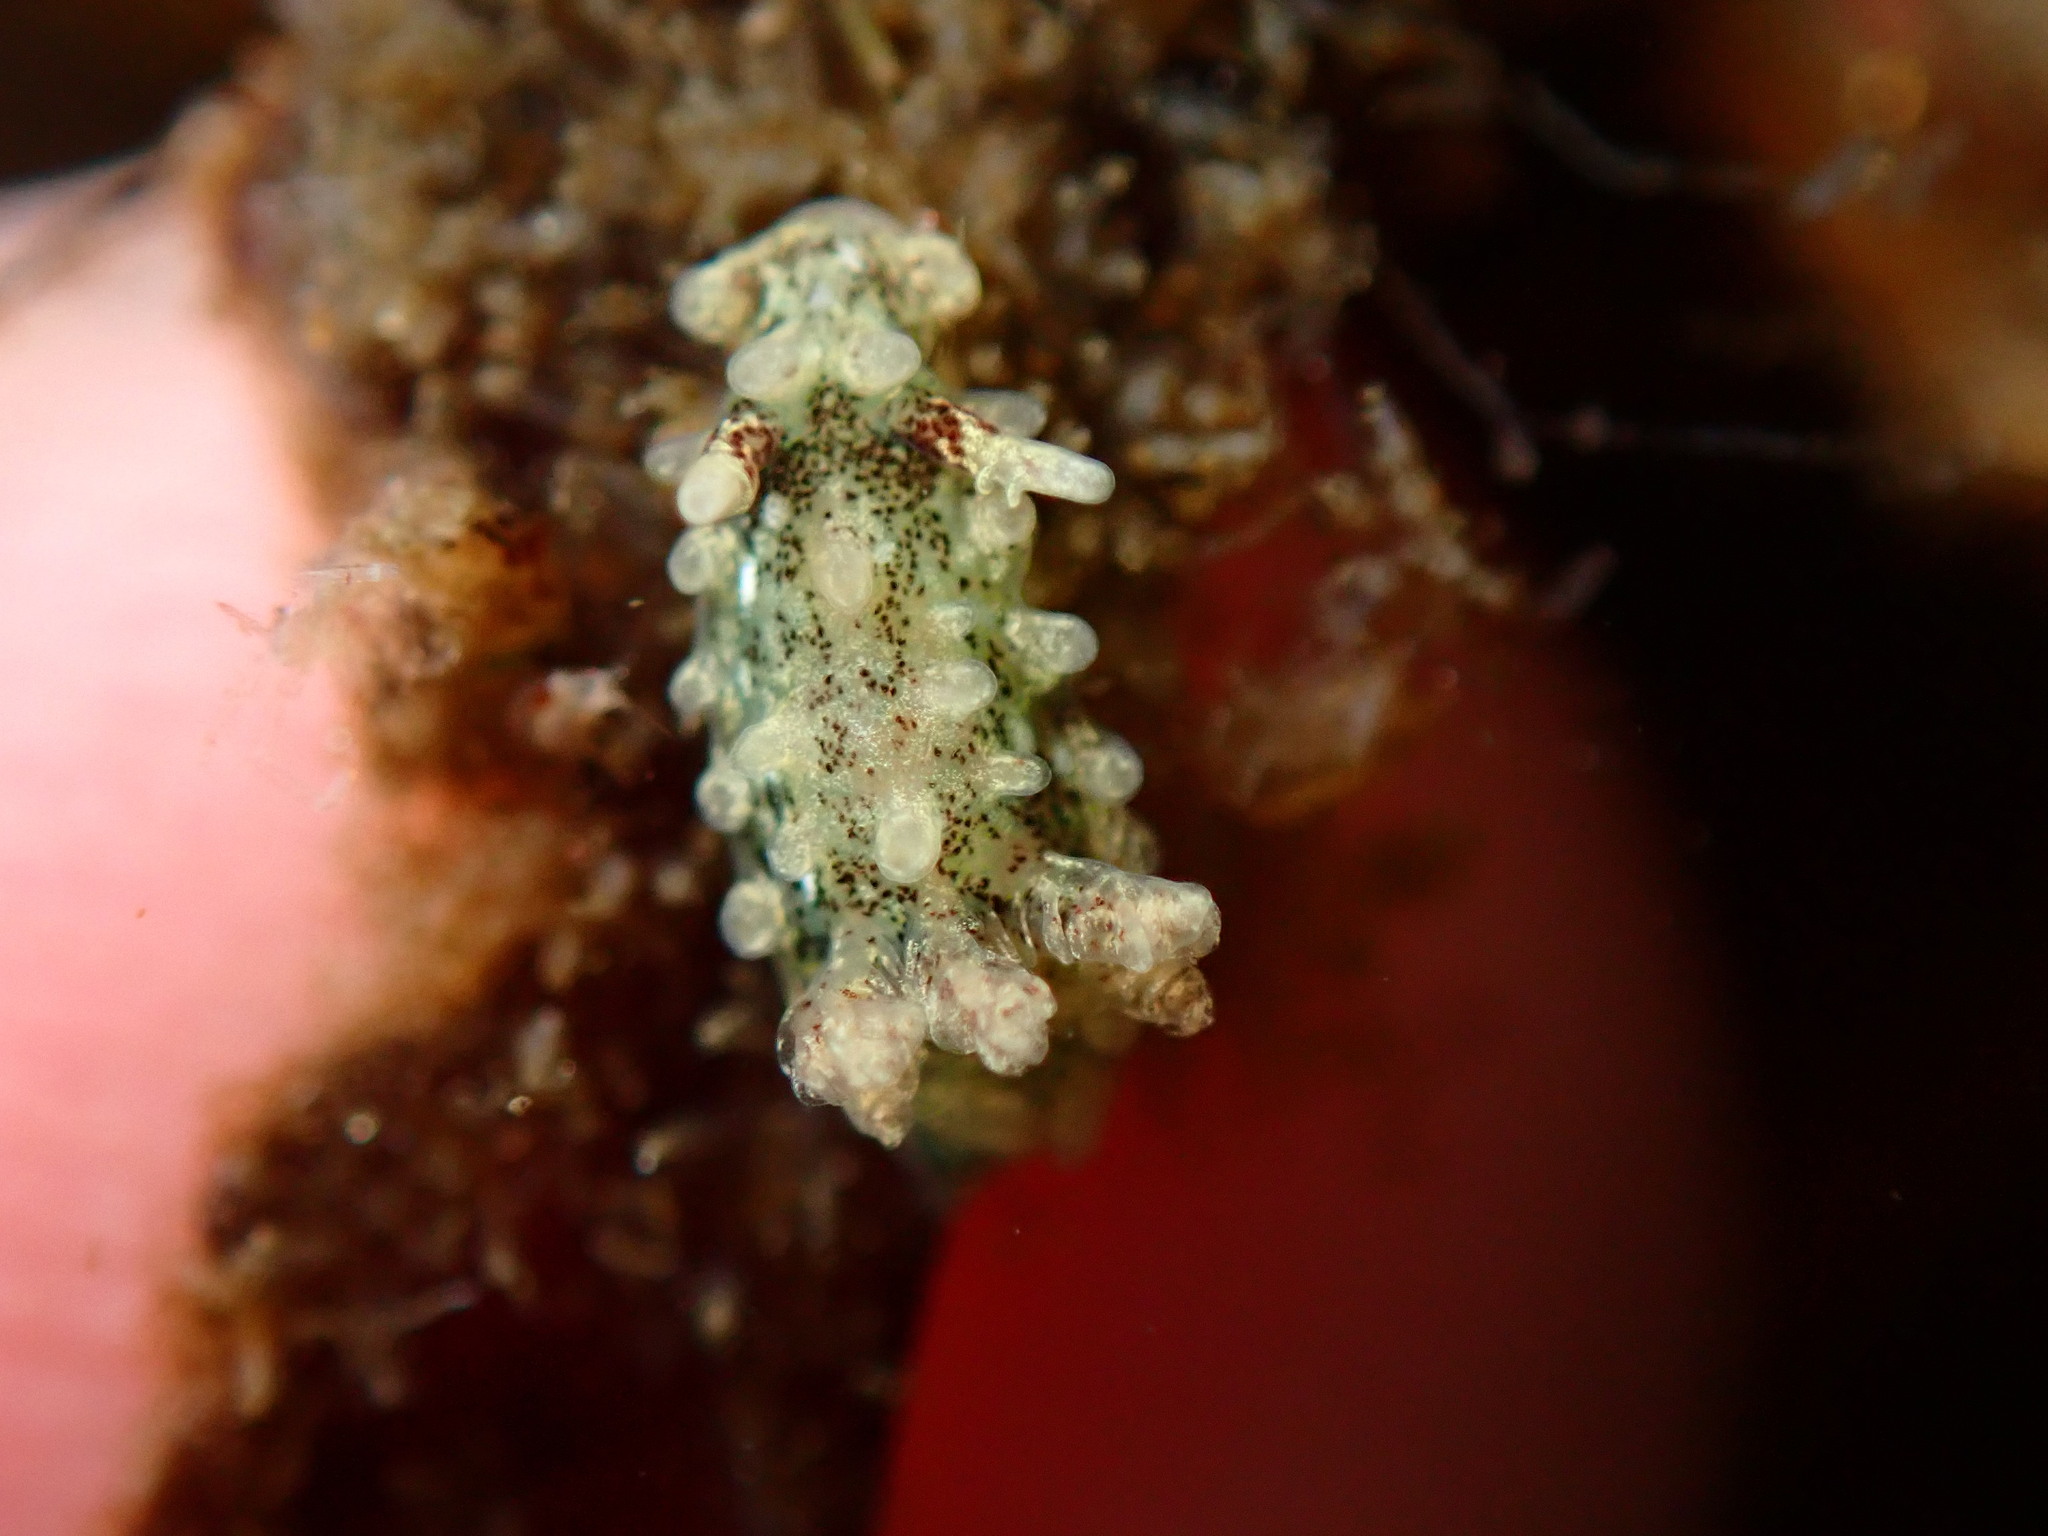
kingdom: Animalia
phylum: Mollusca
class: Gastropoda
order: Nudibranchia
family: Goniodorididae
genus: Okenia
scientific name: Okenia
